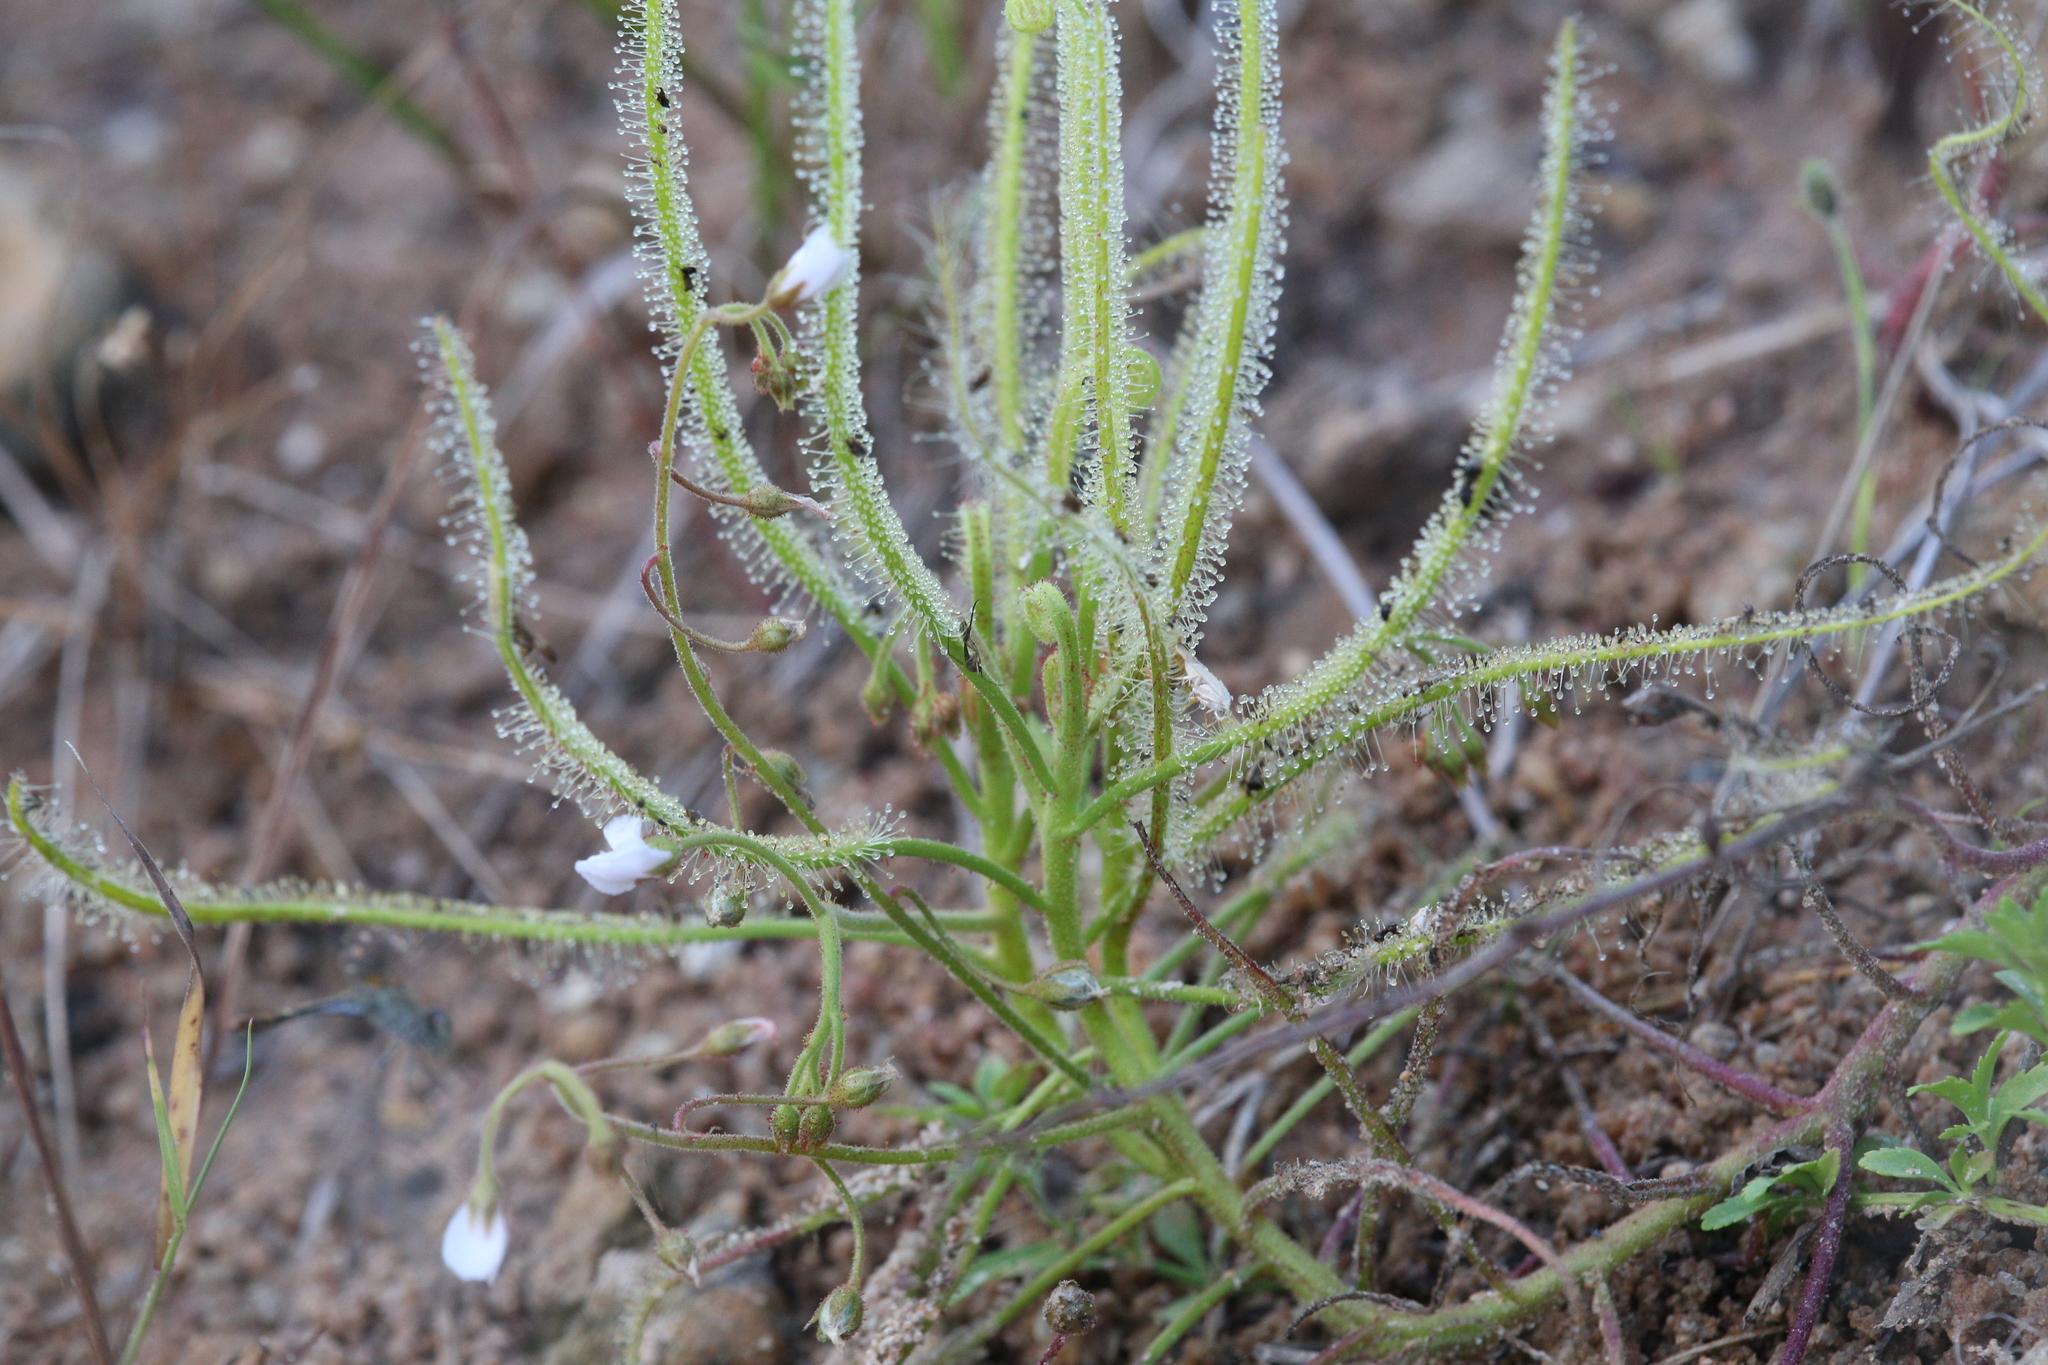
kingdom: Plantae
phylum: Tracheophyta
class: Magnoliopsida
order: Caryophyllales
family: Droseraceae
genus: Drosera
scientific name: Drosera indica
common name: Indian sundew
